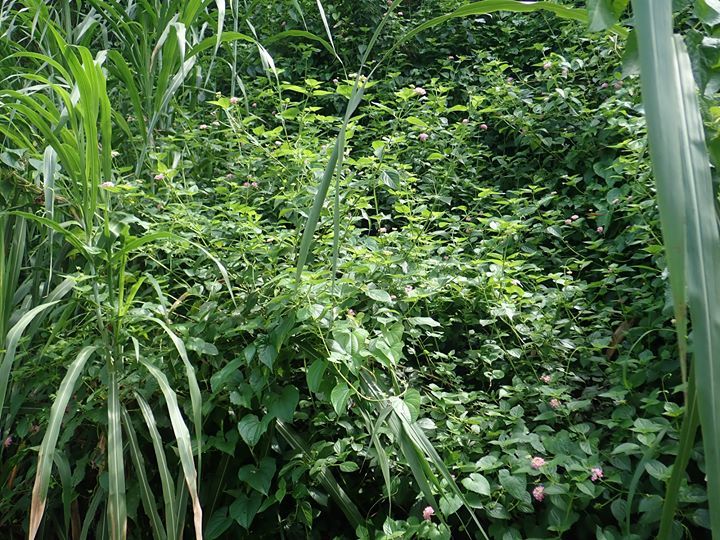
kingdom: Plantae
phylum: Tracheophyta
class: Magnoliopsida
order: Asterales
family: Asteraceae
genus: Mikania
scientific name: Mikania micrantha
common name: Mile-a-minute
